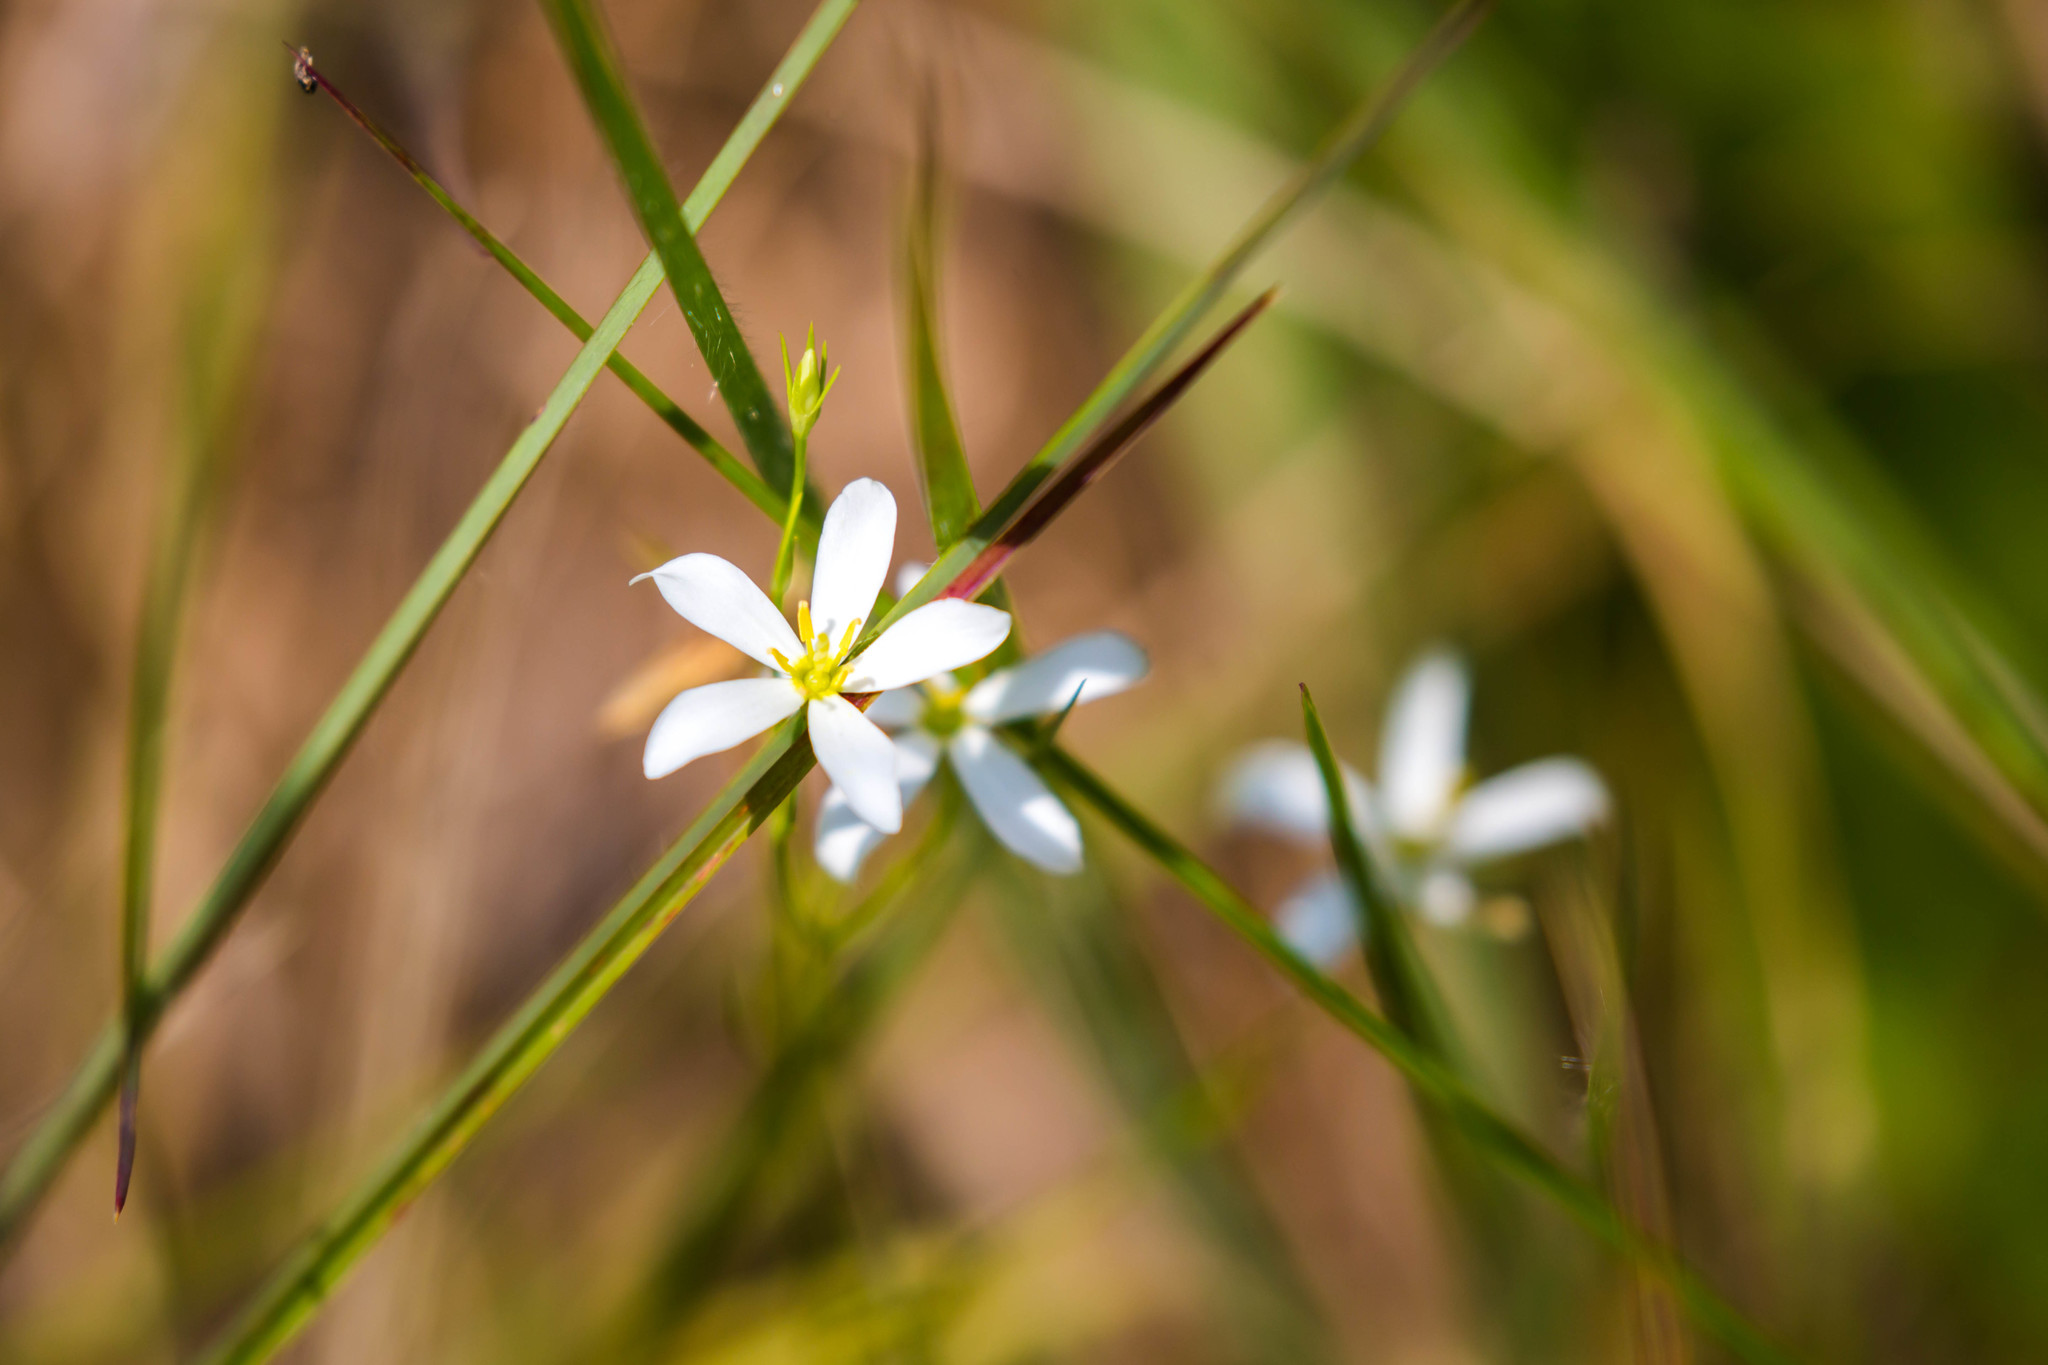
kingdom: Plantae
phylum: Tracheophyta
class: Magnoliopsida
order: Gentianales
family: Gentianaceae
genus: Sabatia
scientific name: Sabatia brevifolia
